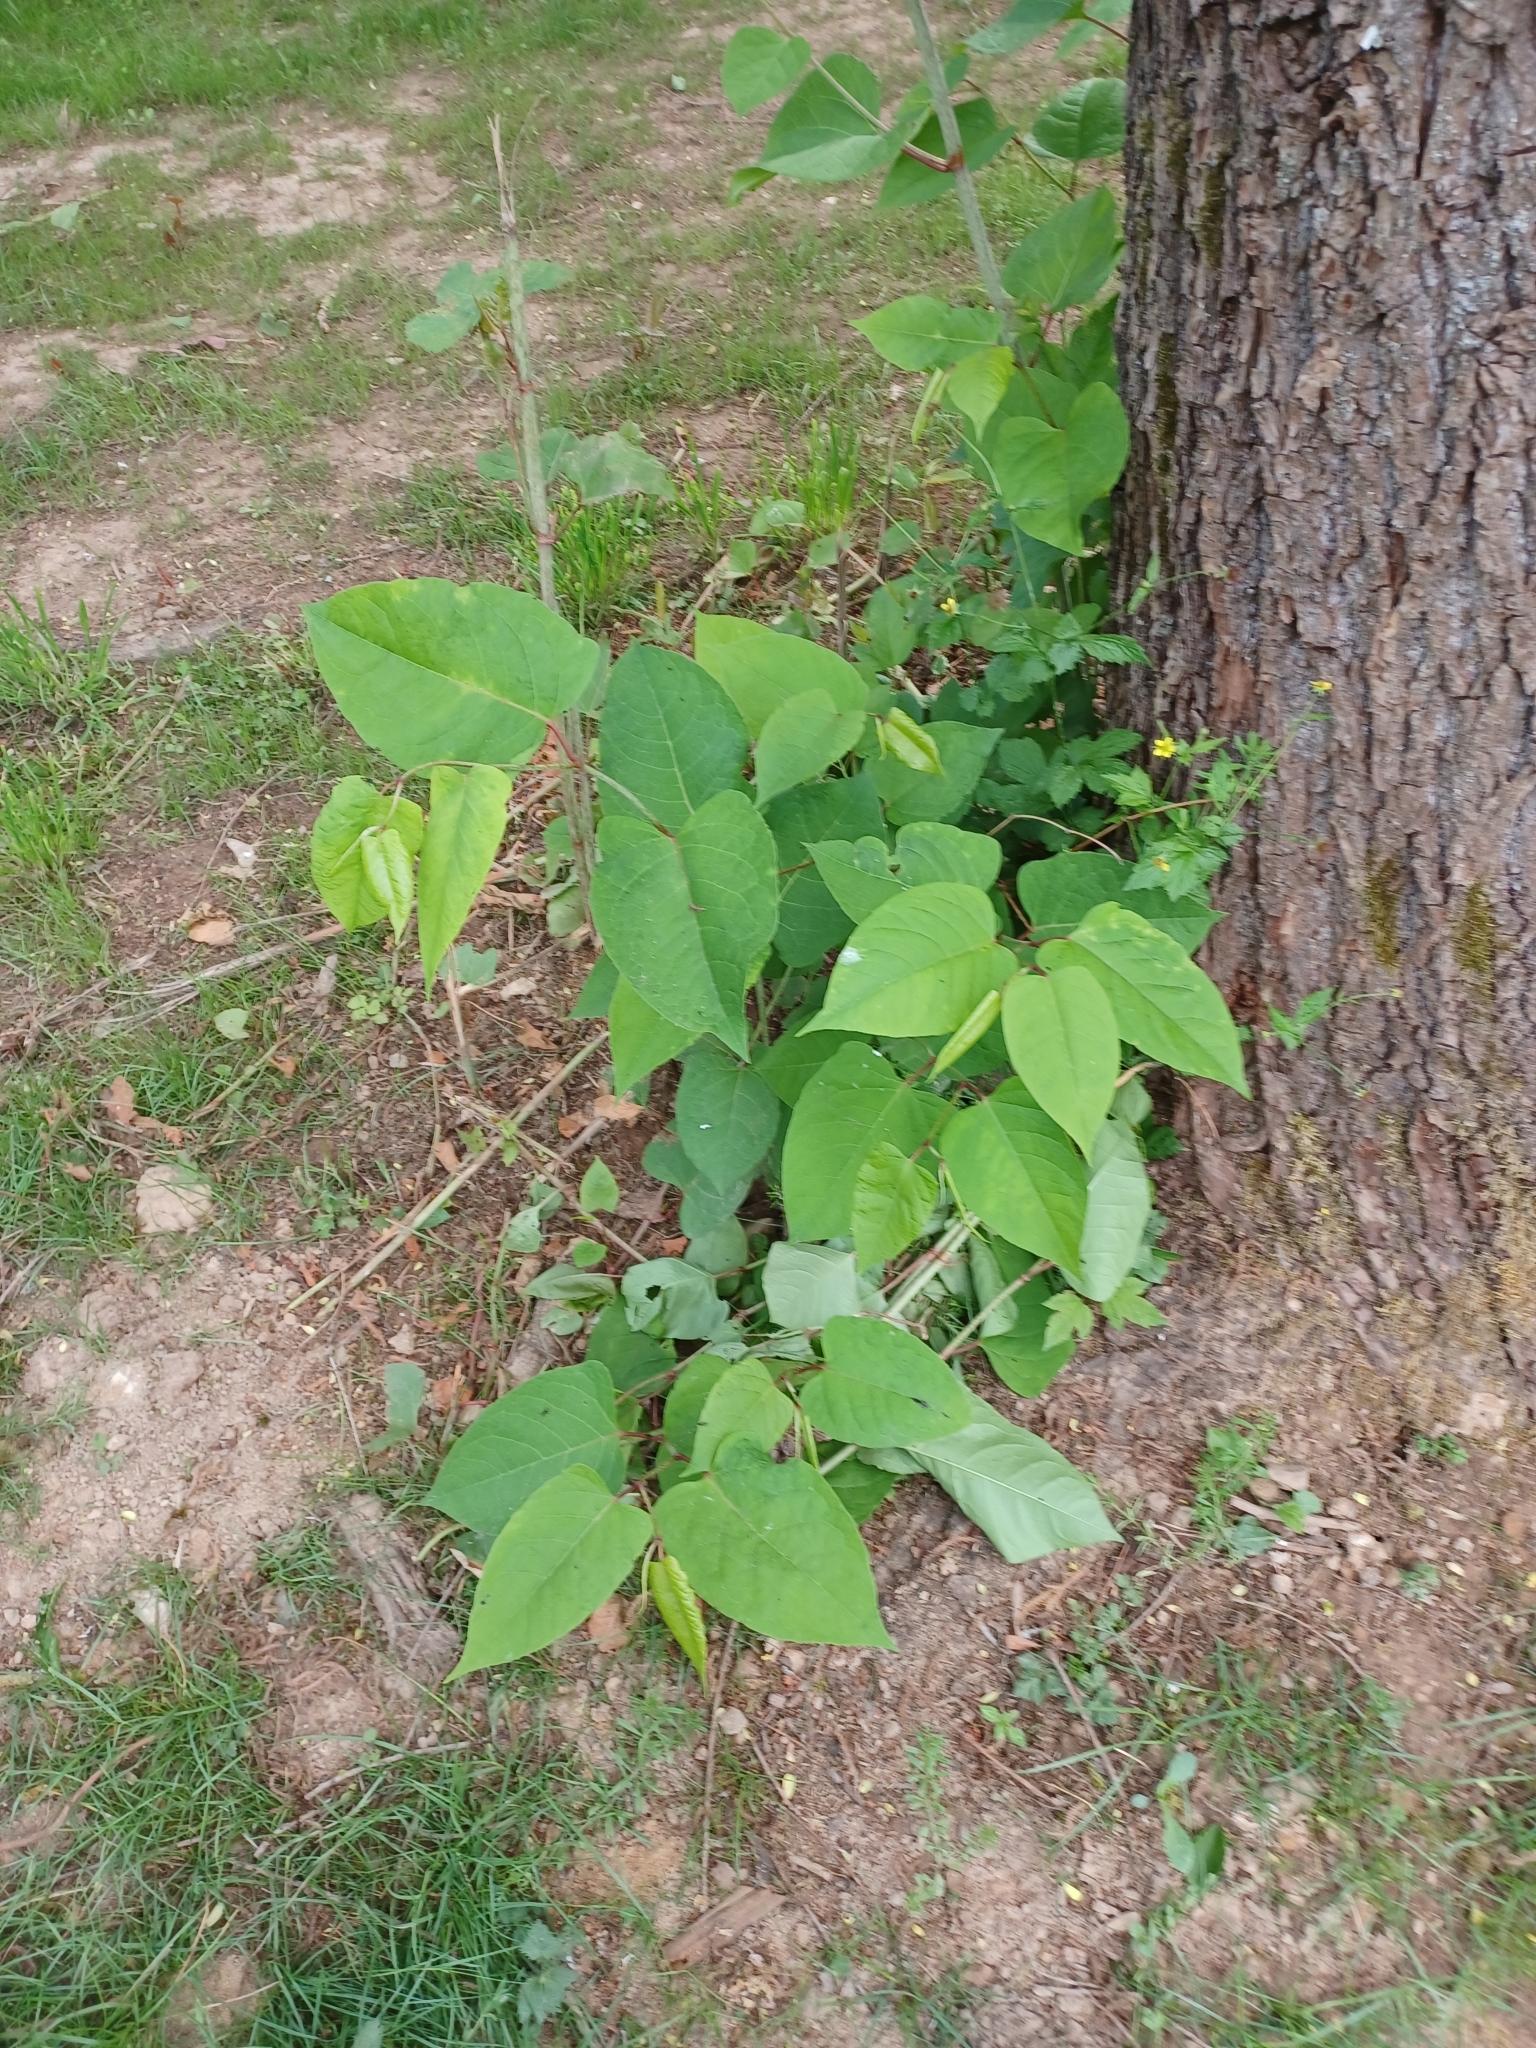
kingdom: Plantae
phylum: Tracheophyta
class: Magnoliopsida
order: Caryophyllales
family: Polygonaceae
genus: Reynoutria
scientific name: Reynoutria japonica
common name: Japanese knotweed
